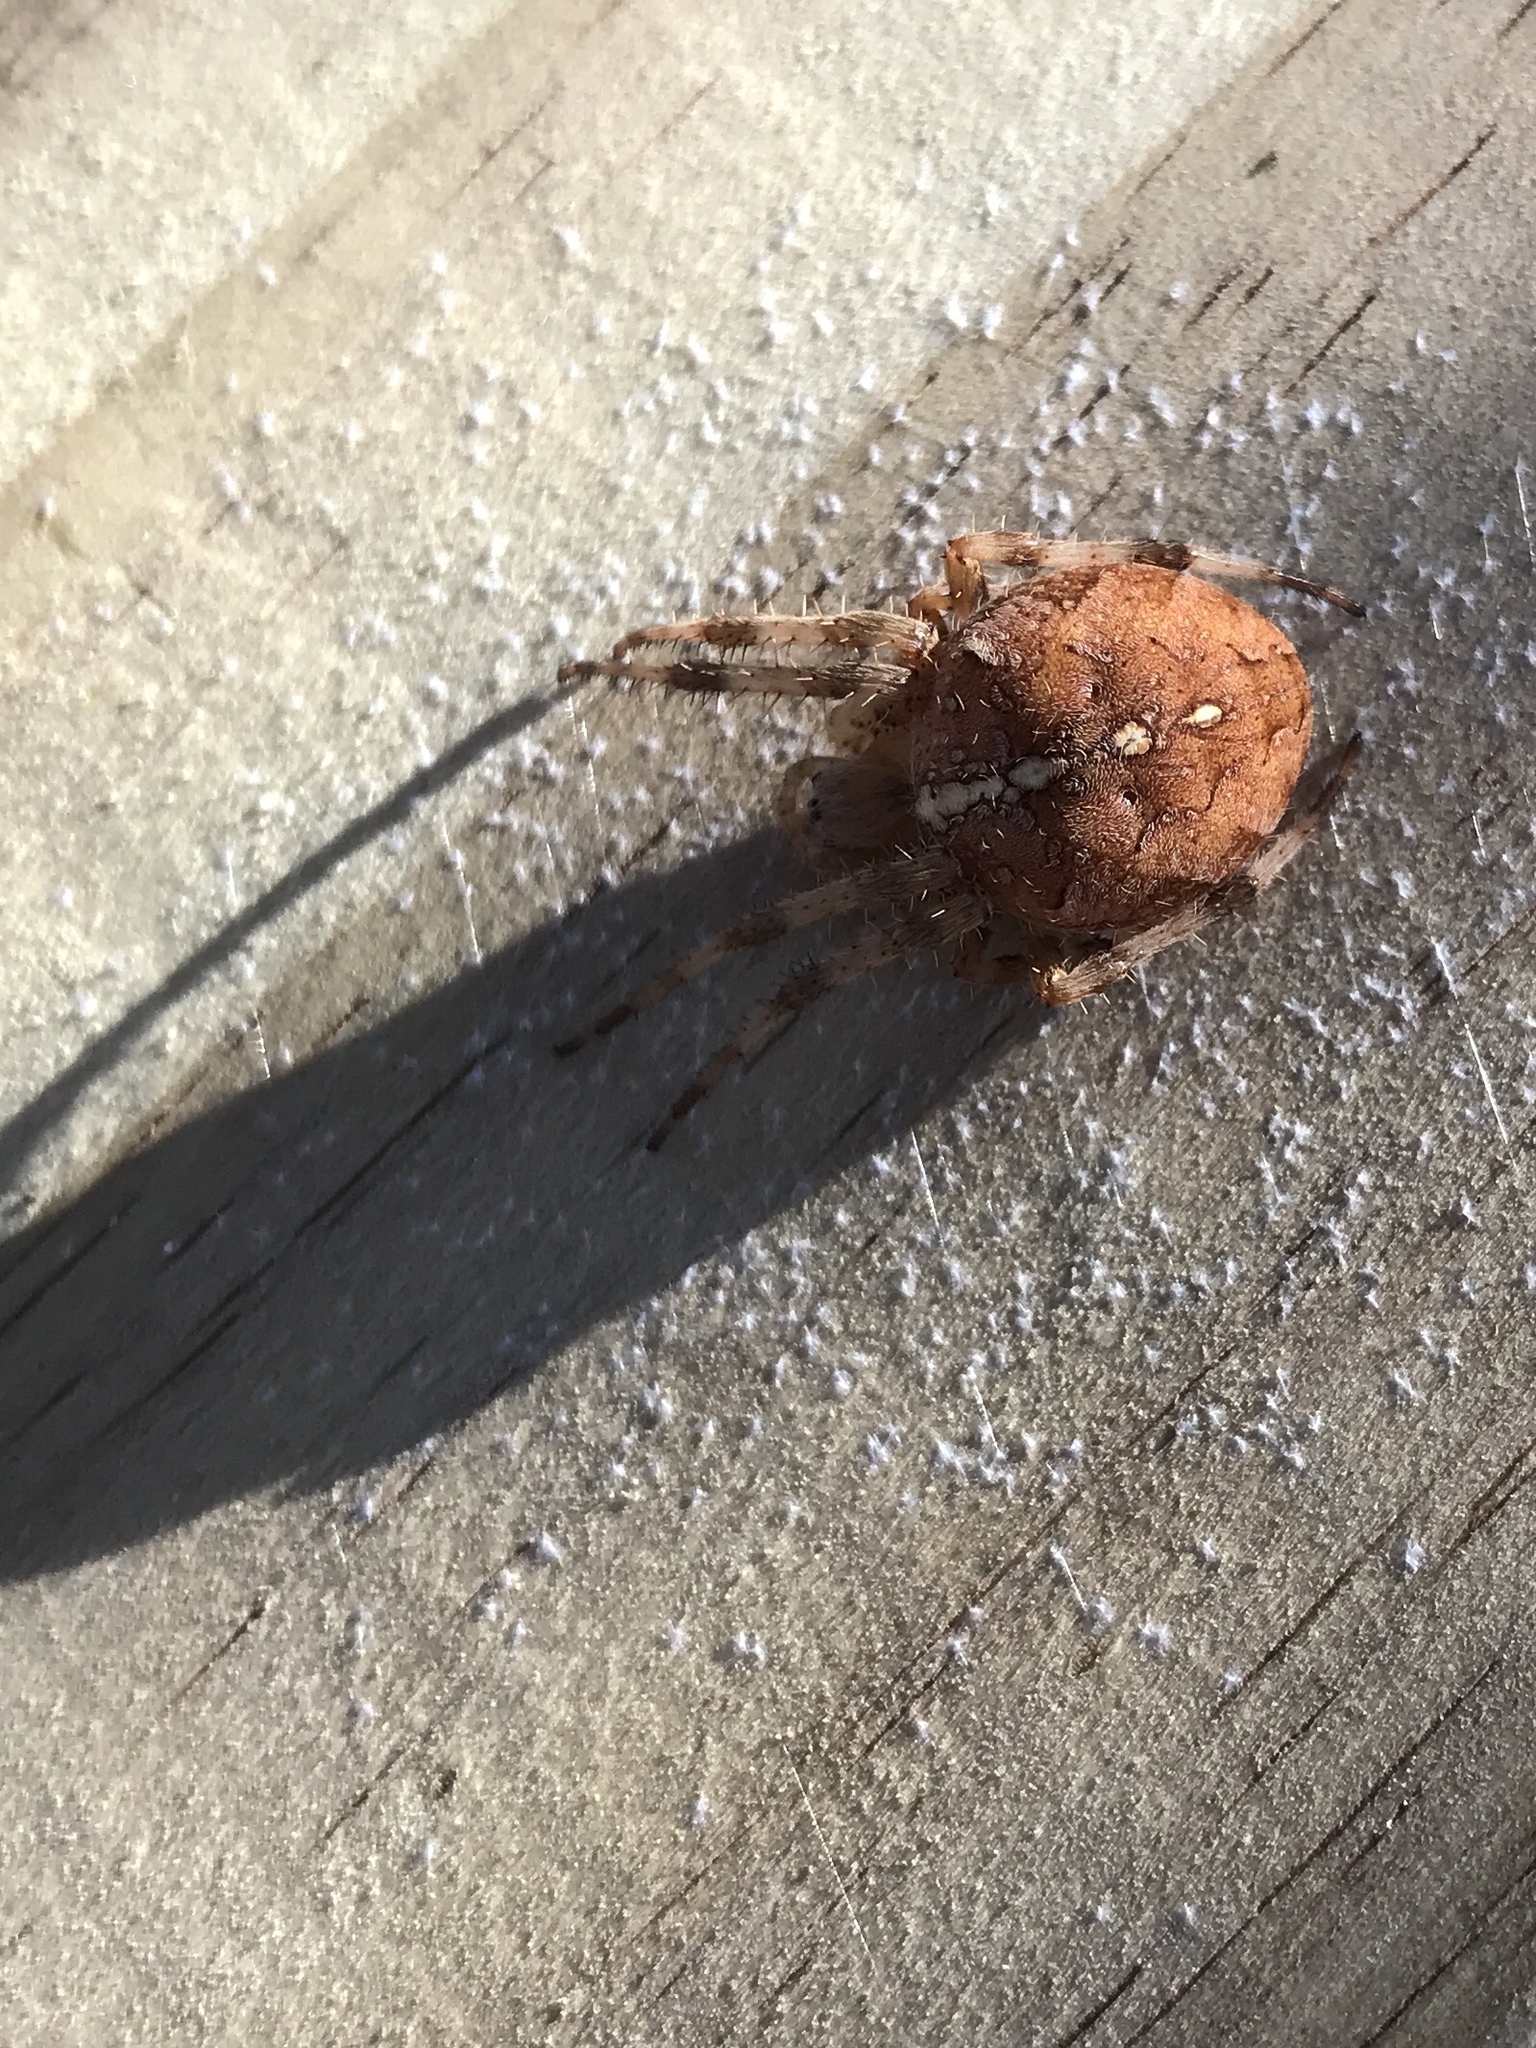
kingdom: Animalia
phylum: Arthropoda
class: Arachnida
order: Araneae
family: Araneidae
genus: Araneus
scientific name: Araneus diadematus
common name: Cross orbweaver
